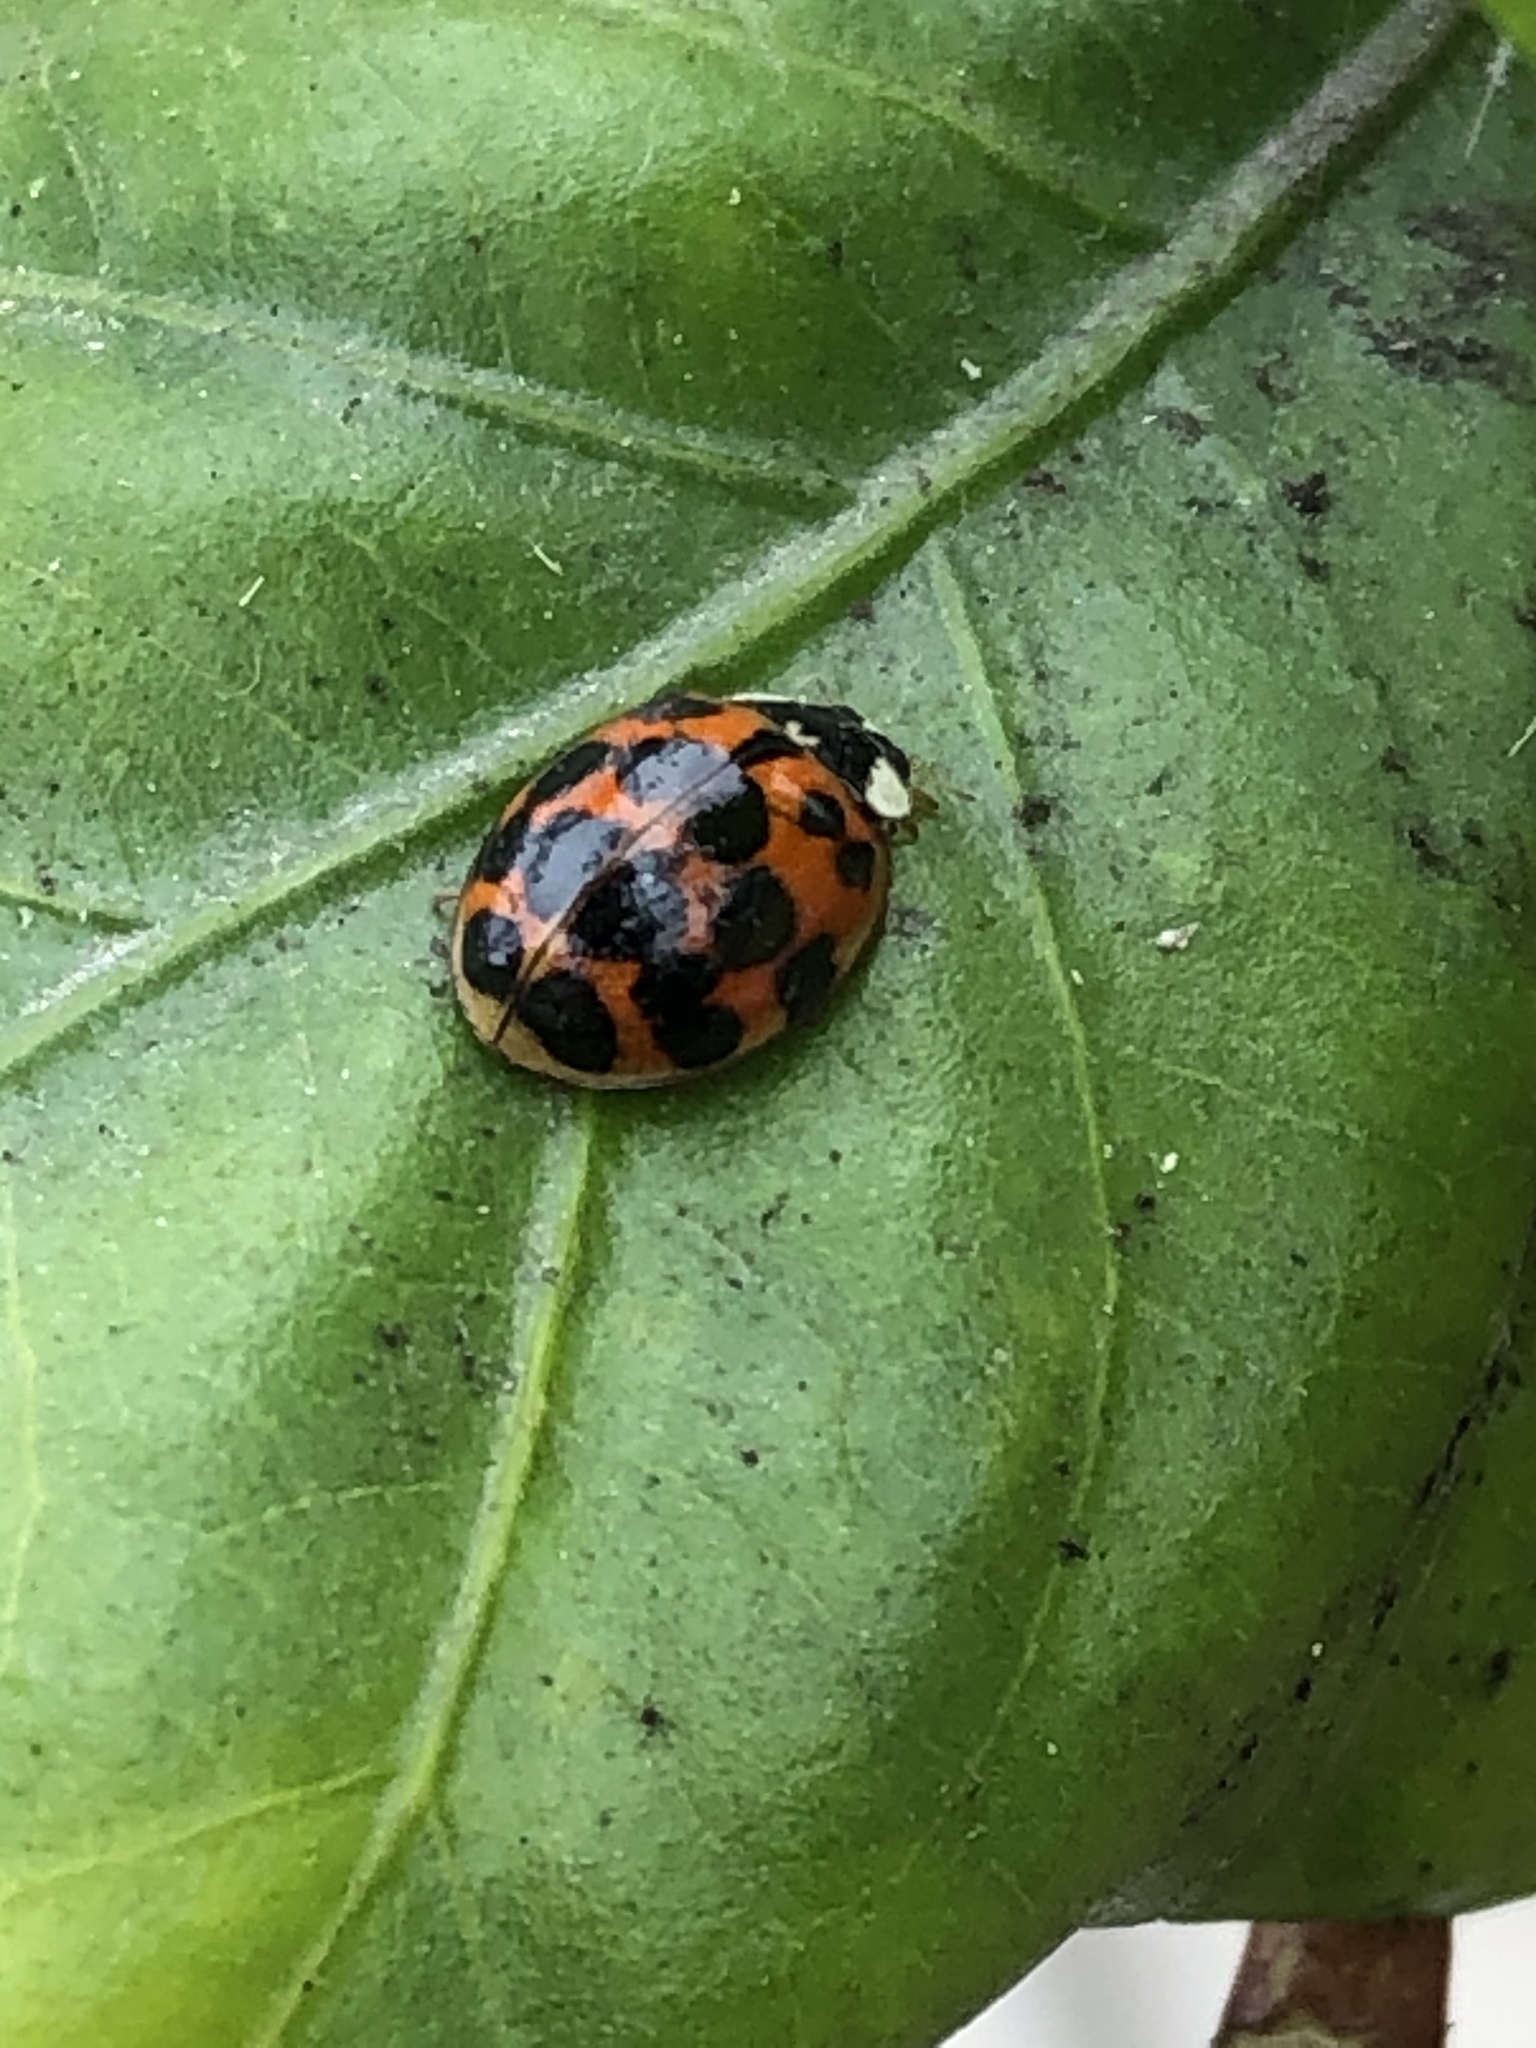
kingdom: Animalia
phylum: Arthropoda
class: Insecta
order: Coleoptera
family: Coccinellidae
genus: Harmonia
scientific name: Harmonia axyridis
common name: Harlequin ladybird
